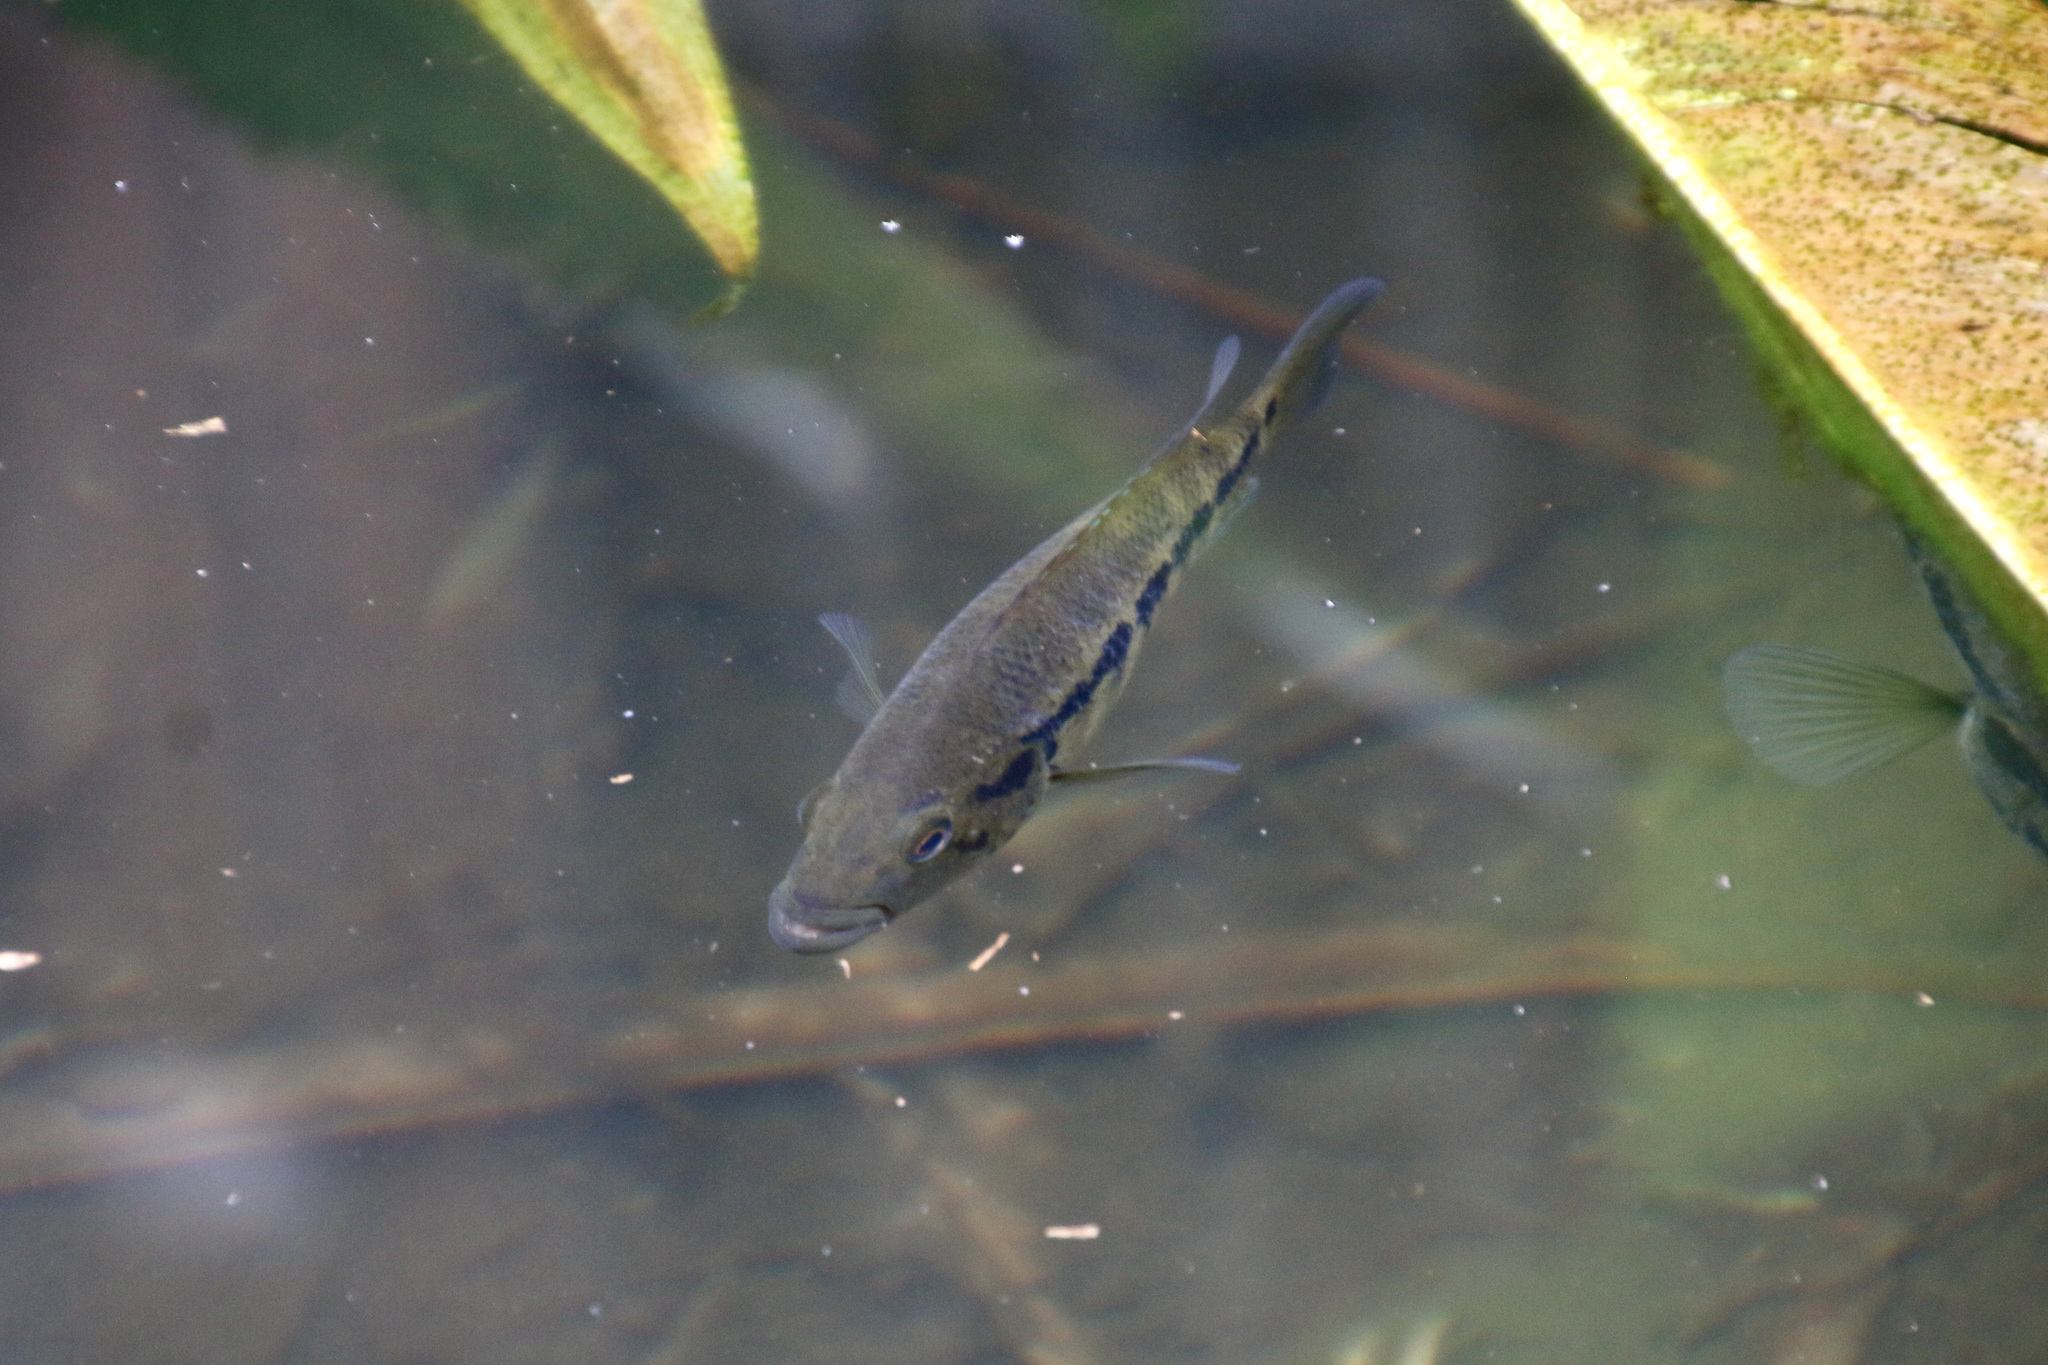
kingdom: Animalia
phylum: Chordata
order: Perciformes
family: Cichlidae
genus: Parachromis
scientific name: Parachromis dovii
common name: Guapote
